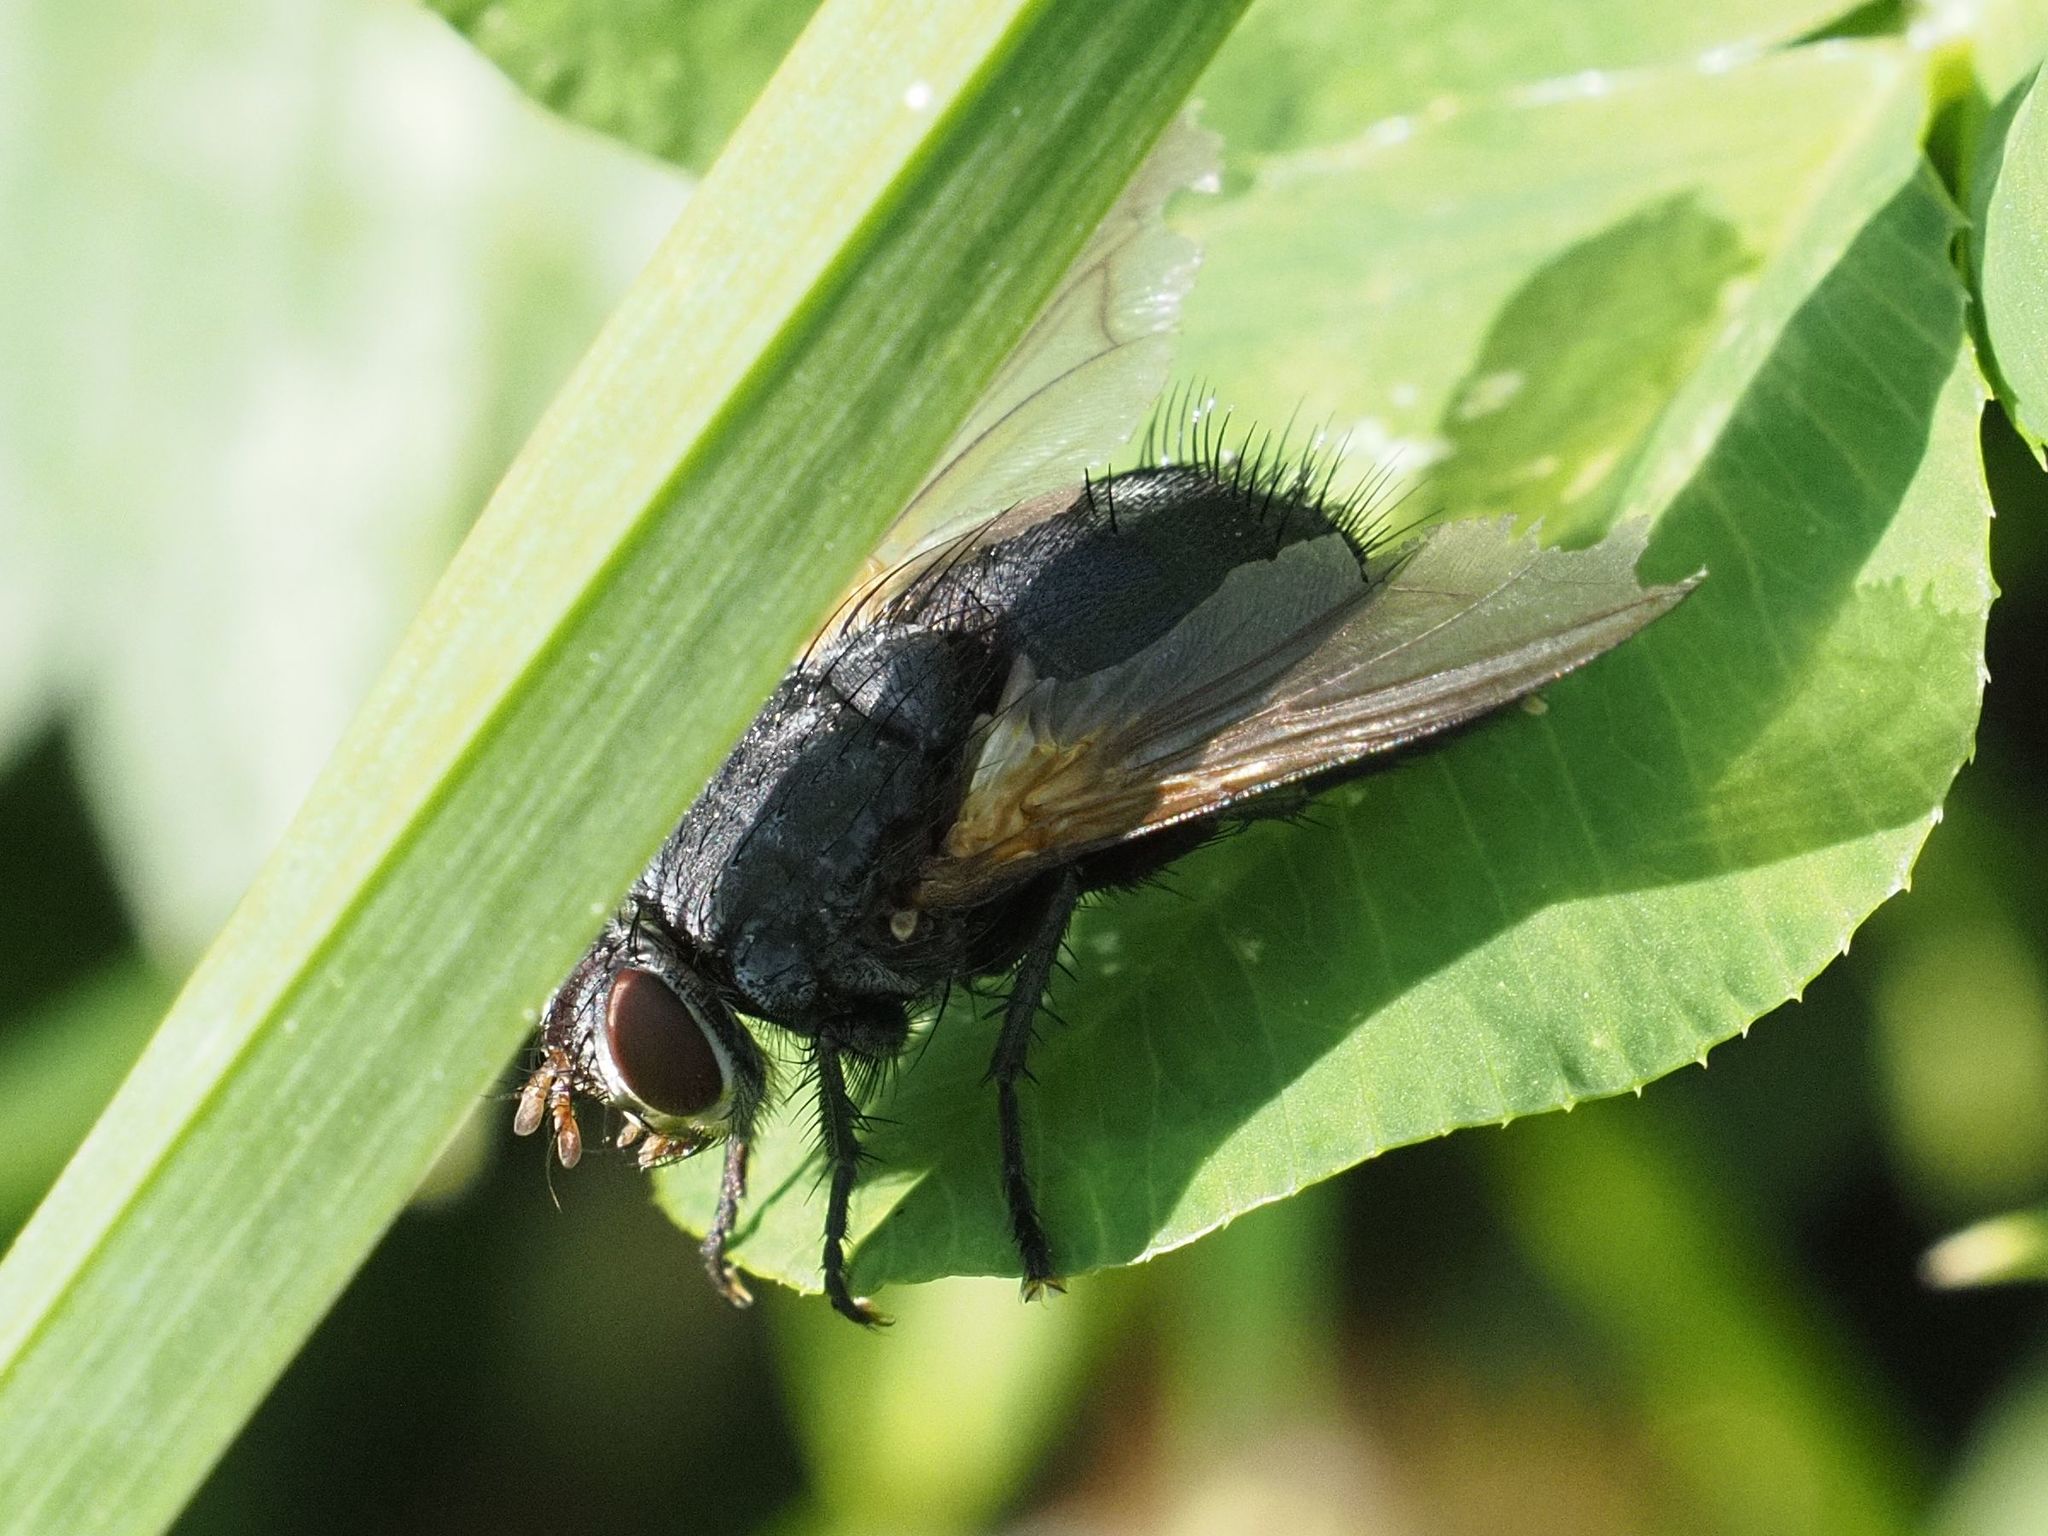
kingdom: Animalia
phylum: Arthropoda
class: Insecta
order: Diptera
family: Tachinidae
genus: Nemoraea
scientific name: Nemoraea pellucida
